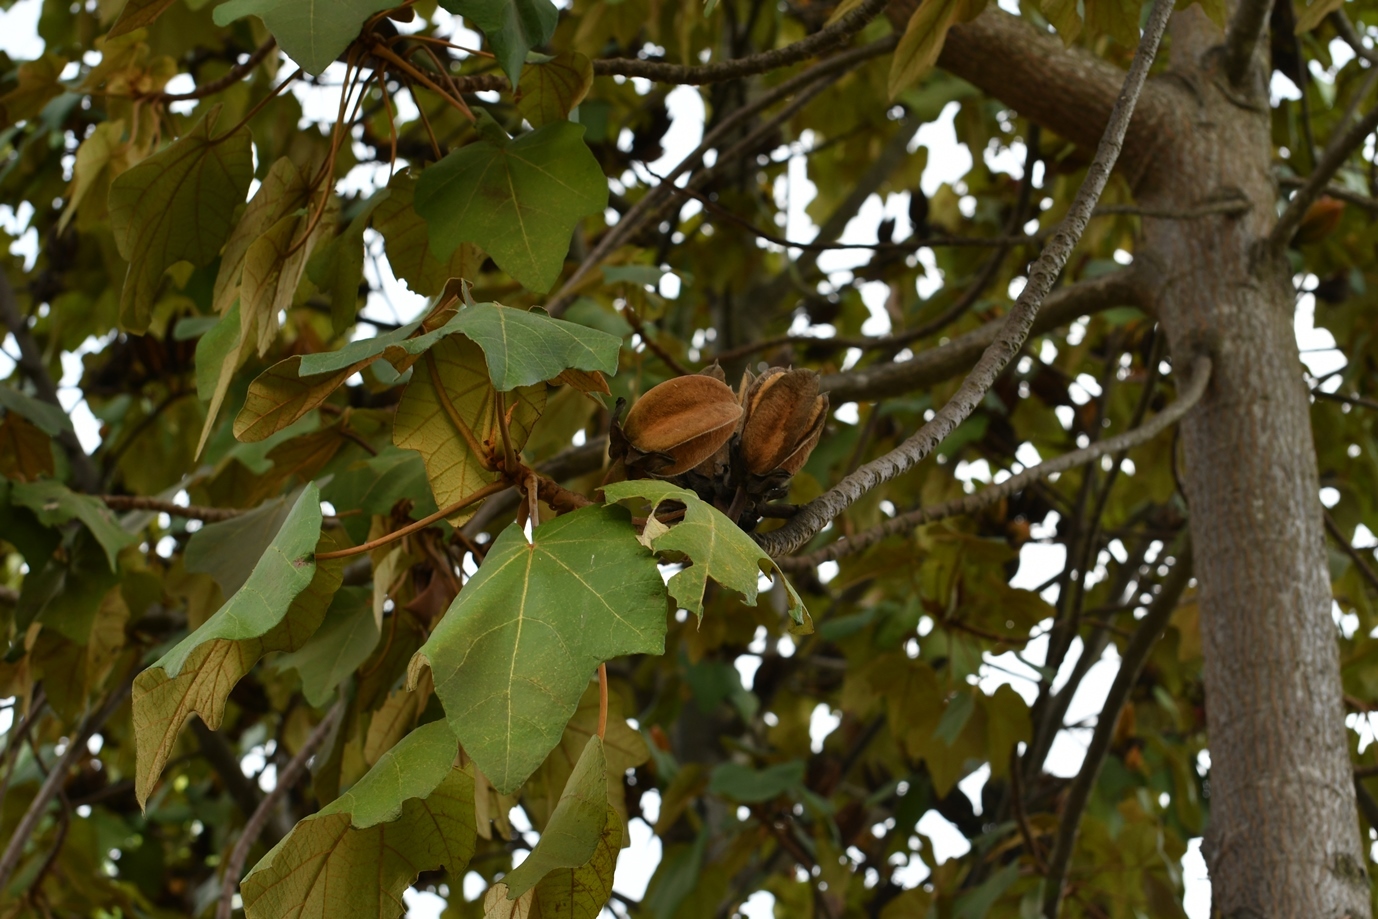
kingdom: Plantae
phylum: Tracheophyta
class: Magnoliopsida
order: Malvales
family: Malvaceae
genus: Chiranthodendron
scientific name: Chiranthodendron pentadactylon
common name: Mexican-hat-plant
